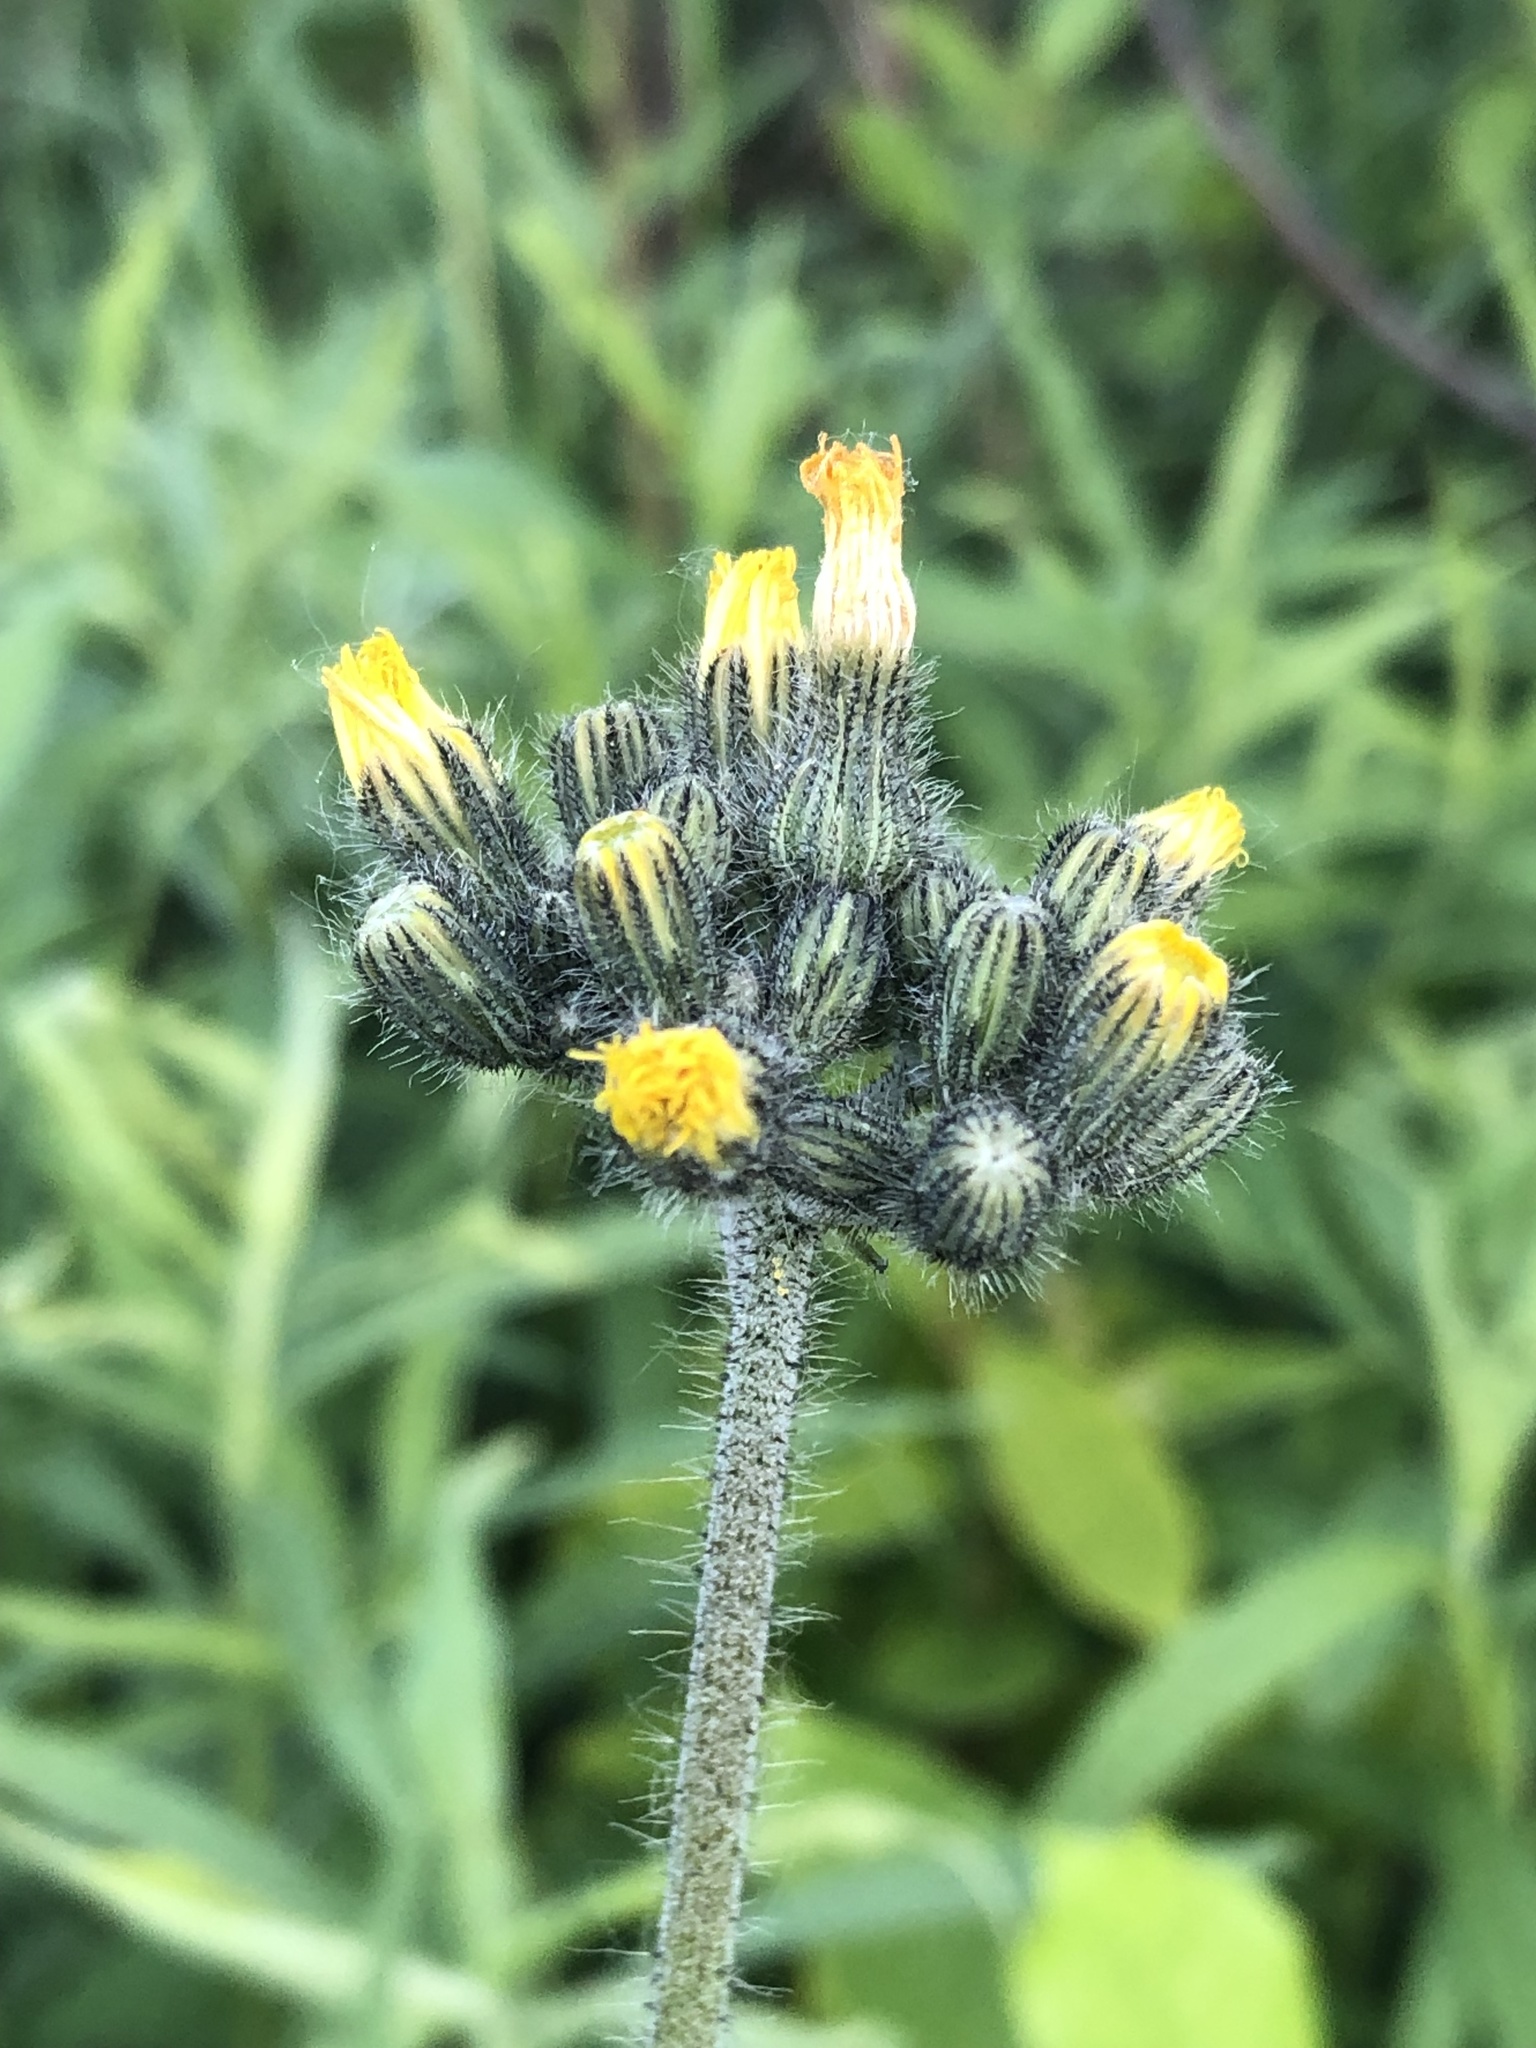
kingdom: Plantae
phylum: Tracheophyta
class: Magnoliopsida
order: Asterales
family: Asteraceae
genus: Pilosella
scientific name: Pilosella caespitosa
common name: Yellow fox-and-cubs
